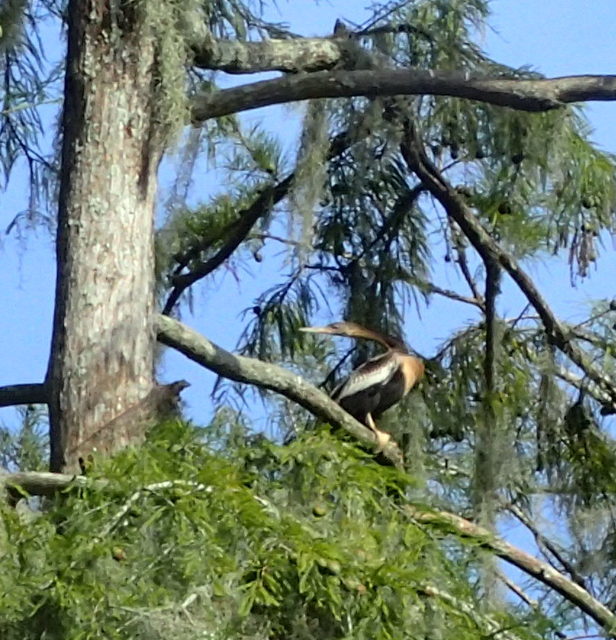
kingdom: Animalia
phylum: Chordata
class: Aves
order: Suliformes
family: Anhingidae
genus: Anhinga
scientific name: Anhinga anhinga
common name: Anhinga
